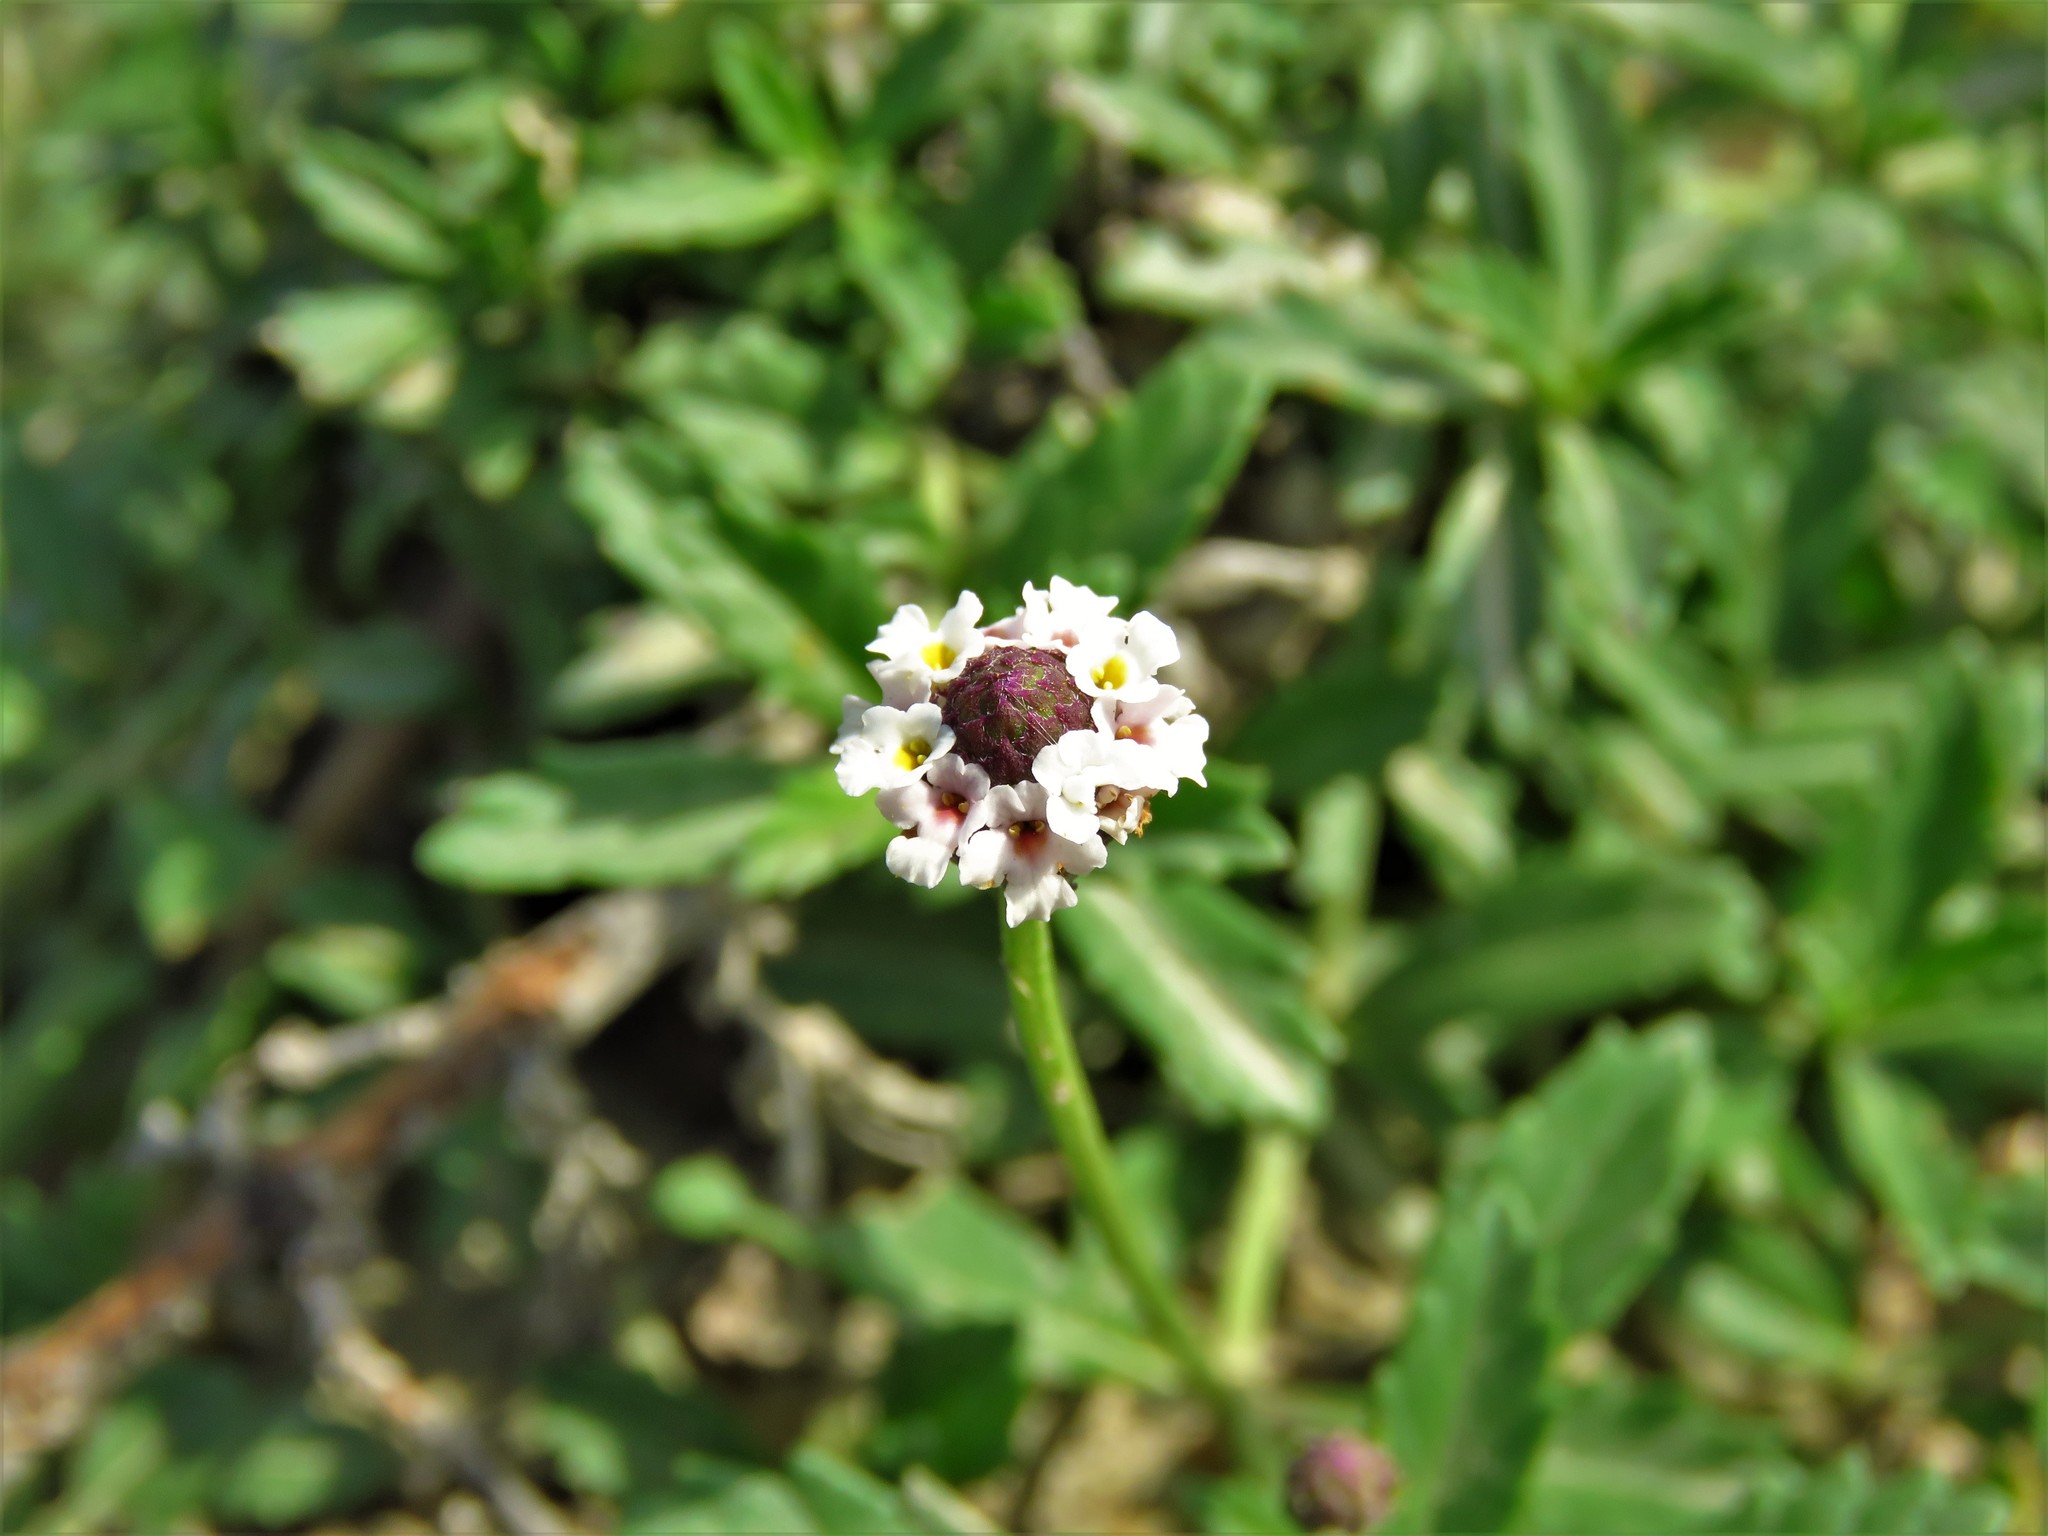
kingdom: Plantae
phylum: Tracheophyta
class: Magnoliopsida
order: Lamiales
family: Verbenaceae
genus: Phyla
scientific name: Phyla nodiflora
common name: Frogfruit
